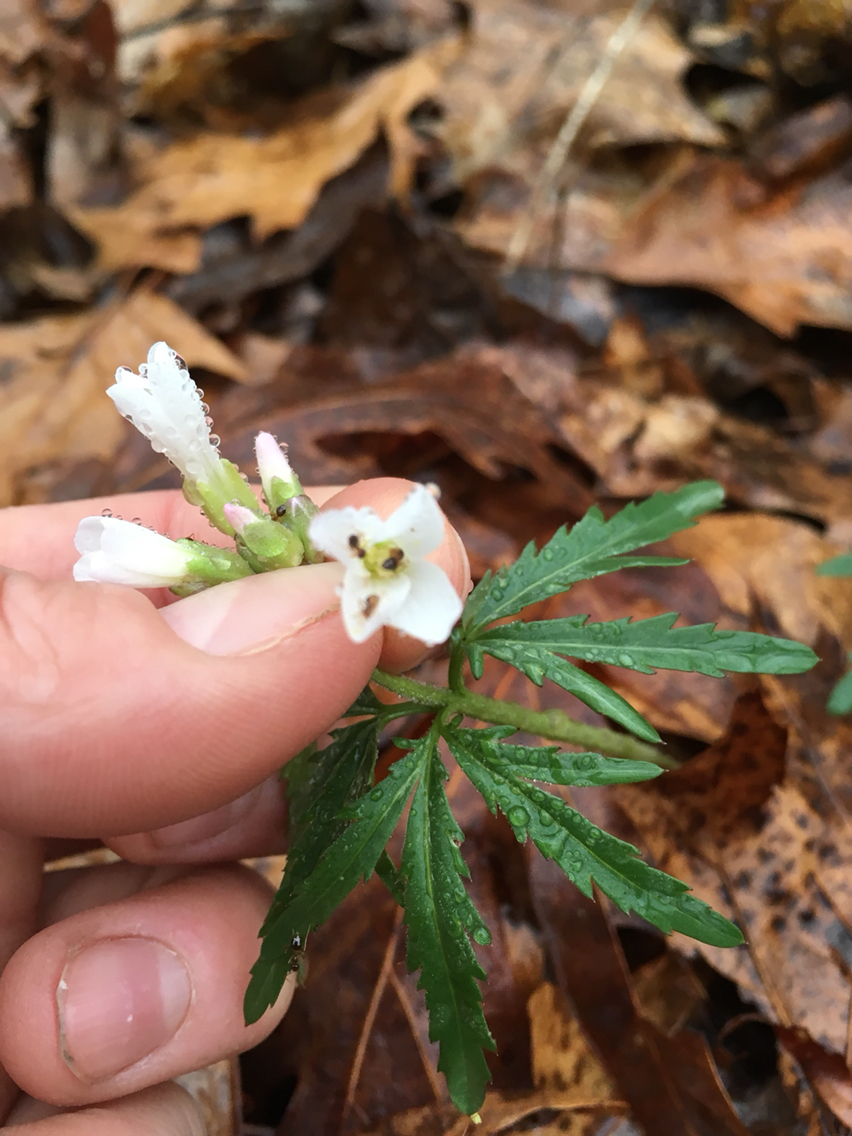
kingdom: Plantae
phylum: Tracheophyta
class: Magnoliopsida
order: Brassicales
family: Brassicaceae
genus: Cardamine
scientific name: Cardamine concatenata
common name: Cut-leaf toothcup
